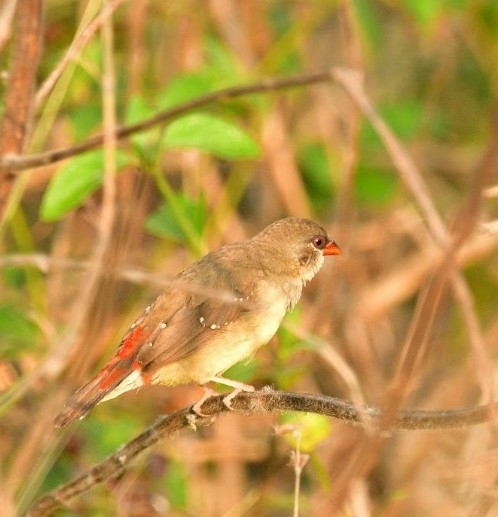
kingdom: Animalia
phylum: Chordata
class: Aves
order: Passeriformes
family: Estrildidae
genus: Amandava
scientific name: Amandava amandava
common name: Red avadavat
